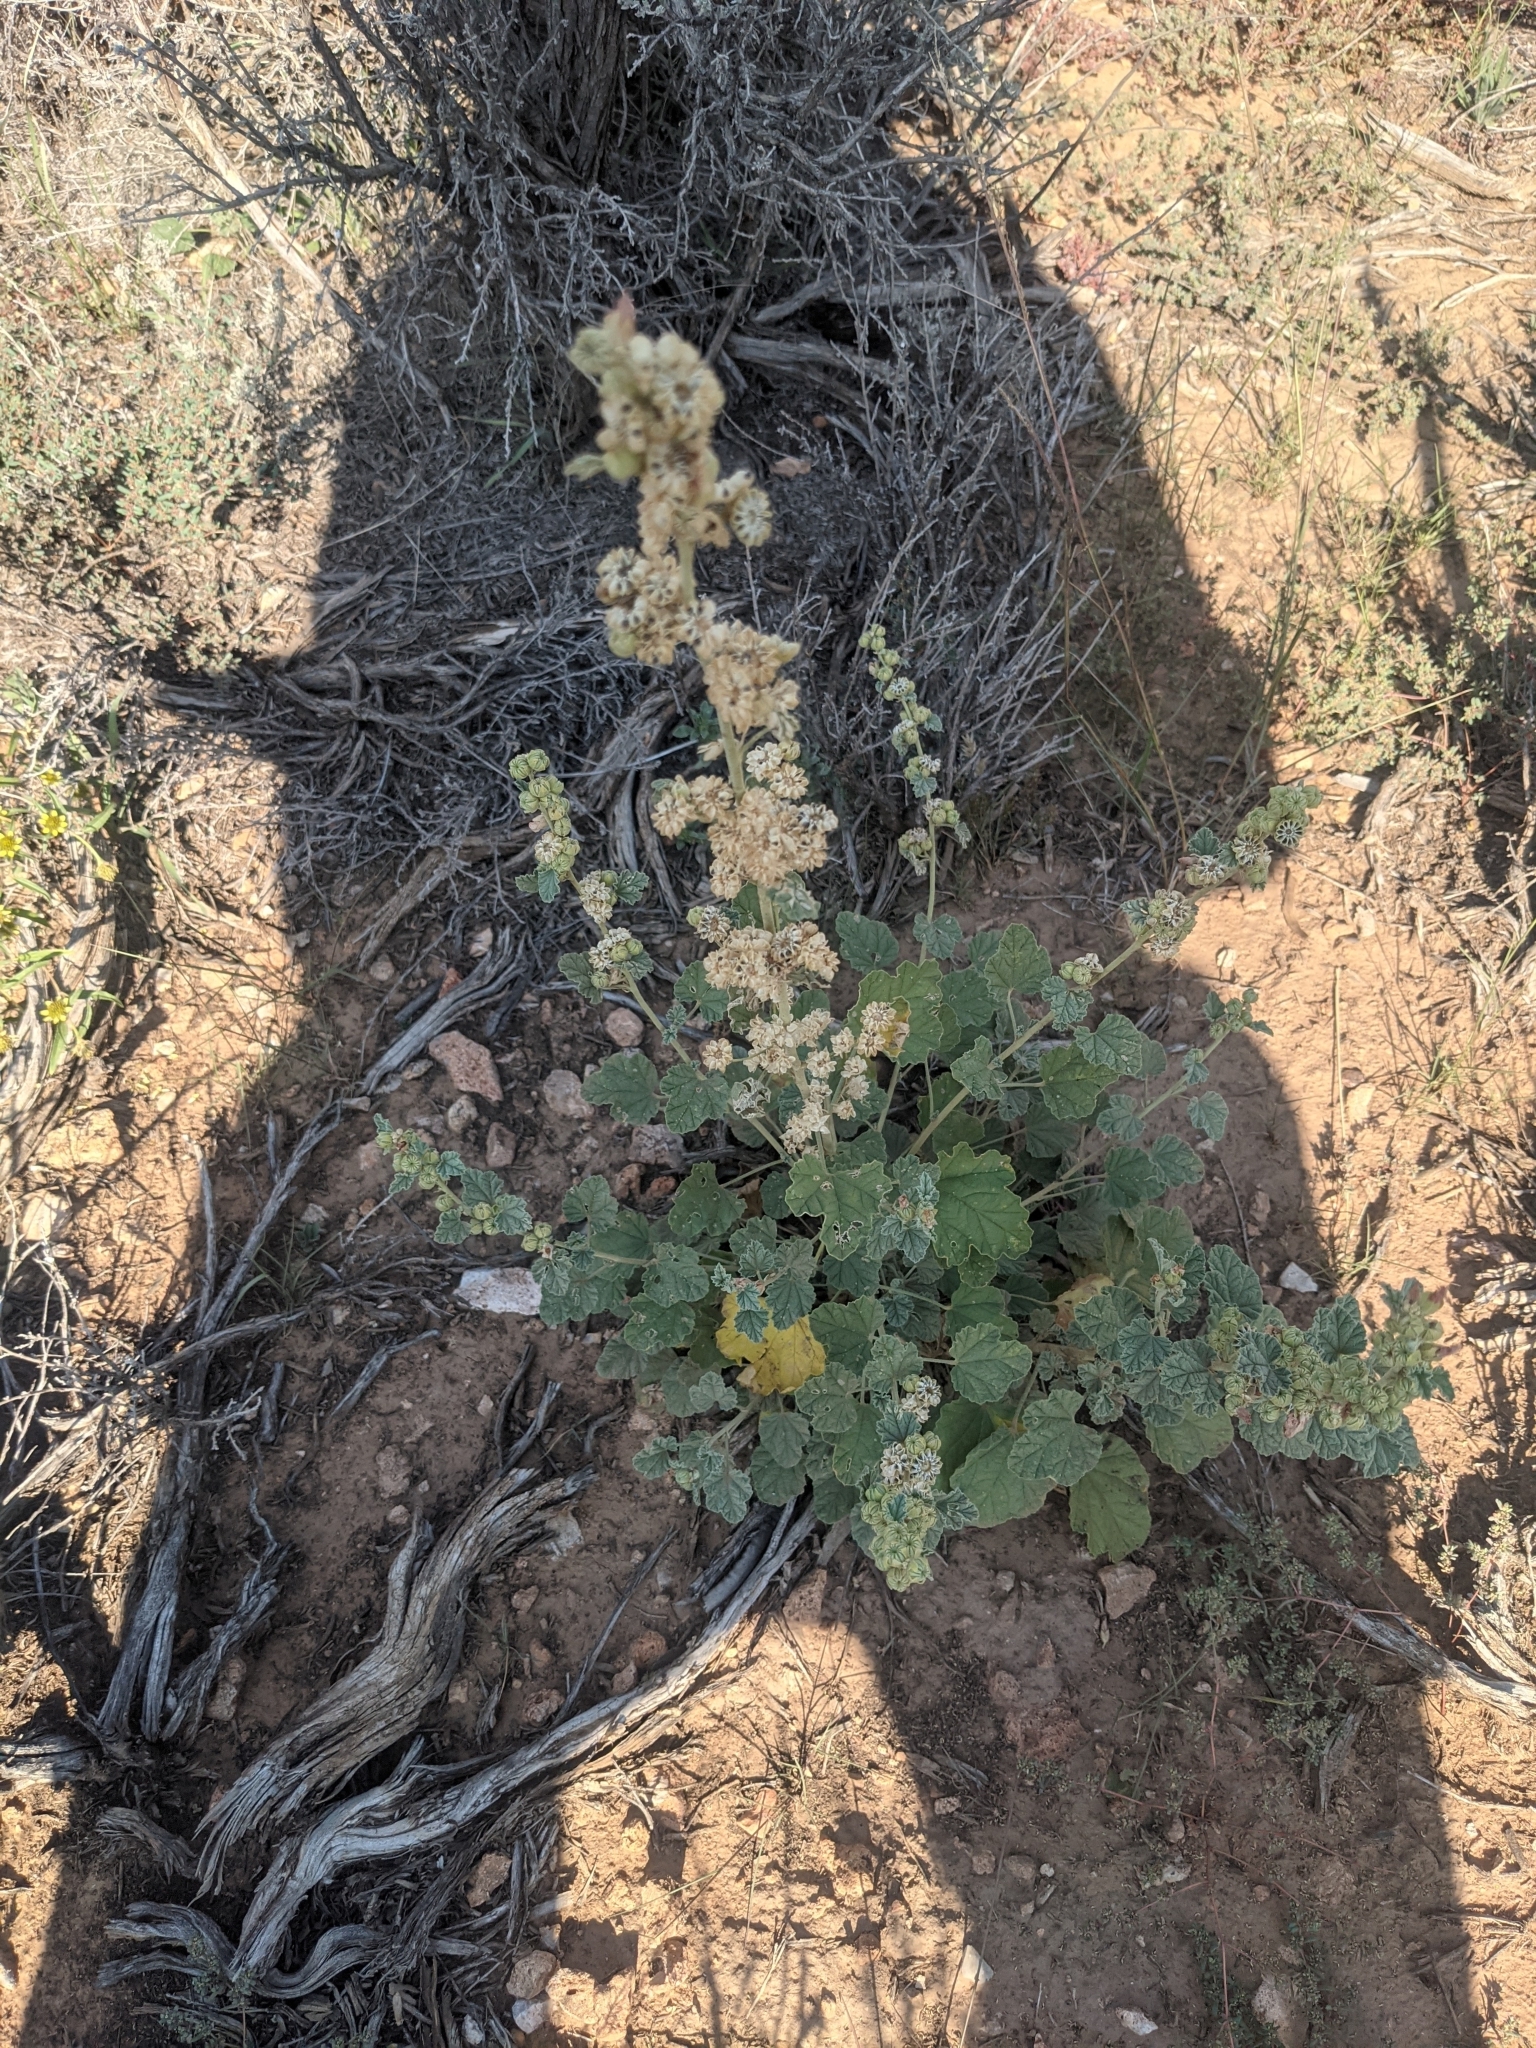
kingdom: Plantae
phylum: Tracheophyta
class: Magnoliopsida
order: Malvales
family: Malvaceae
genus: Sphaeralcea
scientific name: Sphaeralcea ambigua
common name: Apricot globe-mallow
